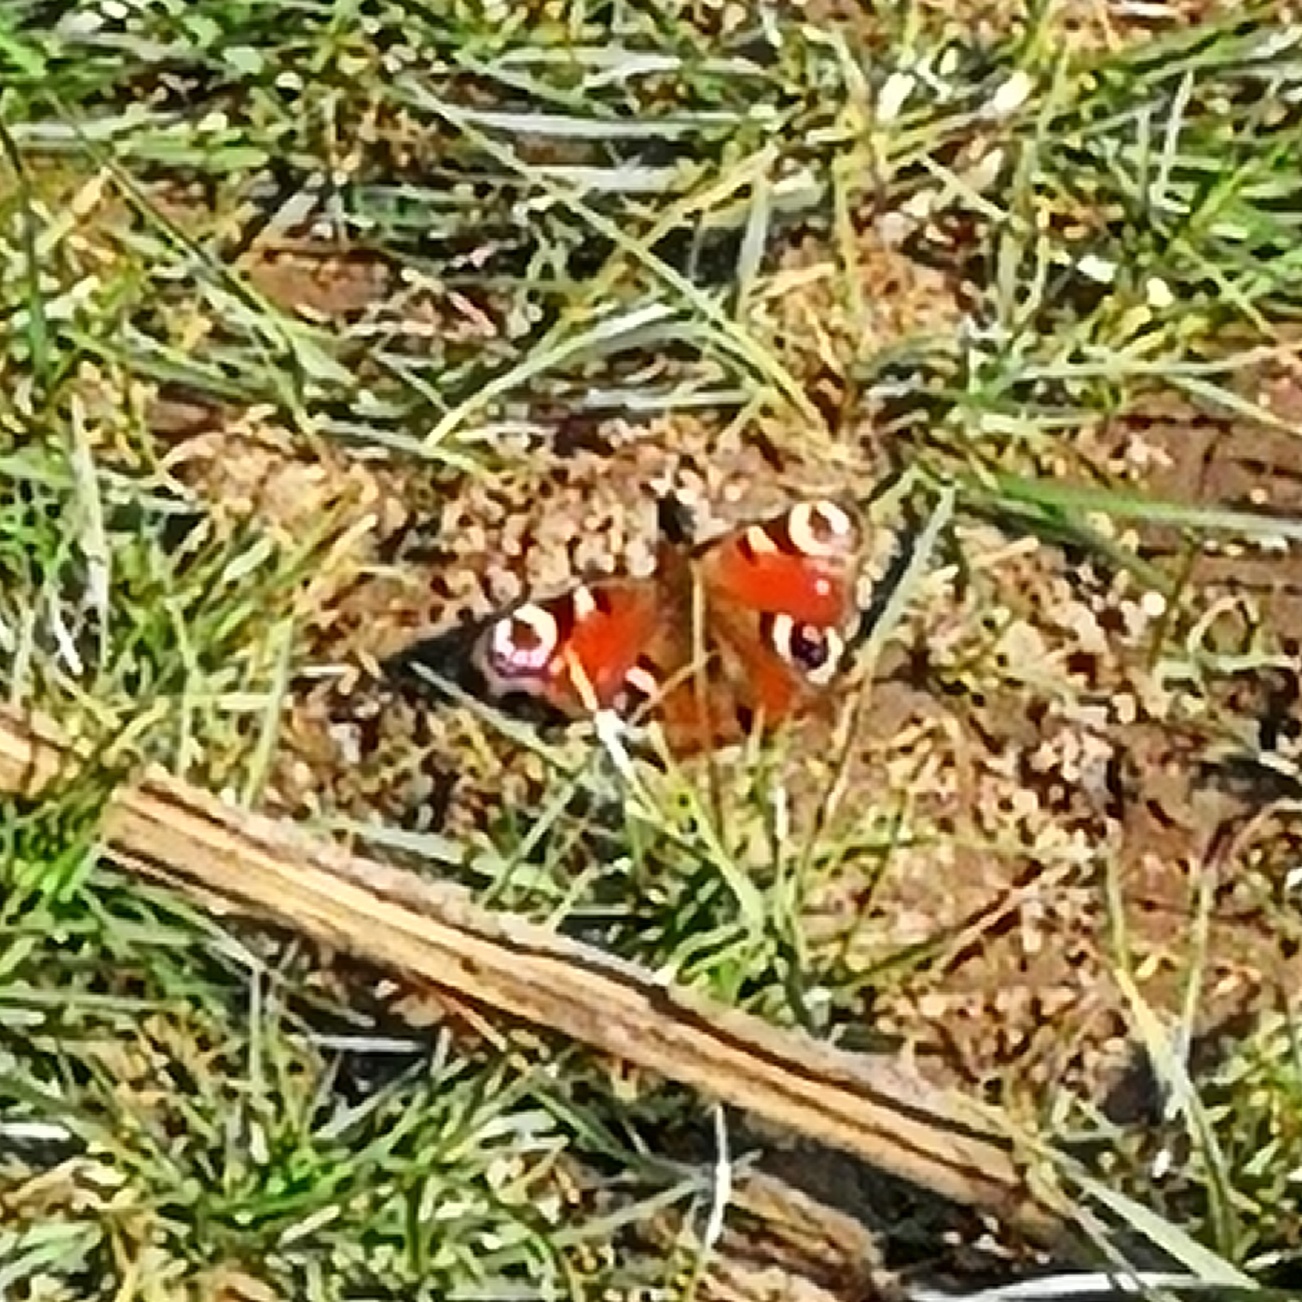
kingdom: Animalia
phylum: Arthropoda
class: Insecta
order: Lepidoptera
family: Nymphalidae
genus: Aglais
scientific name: Aglais io
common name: Peacock
